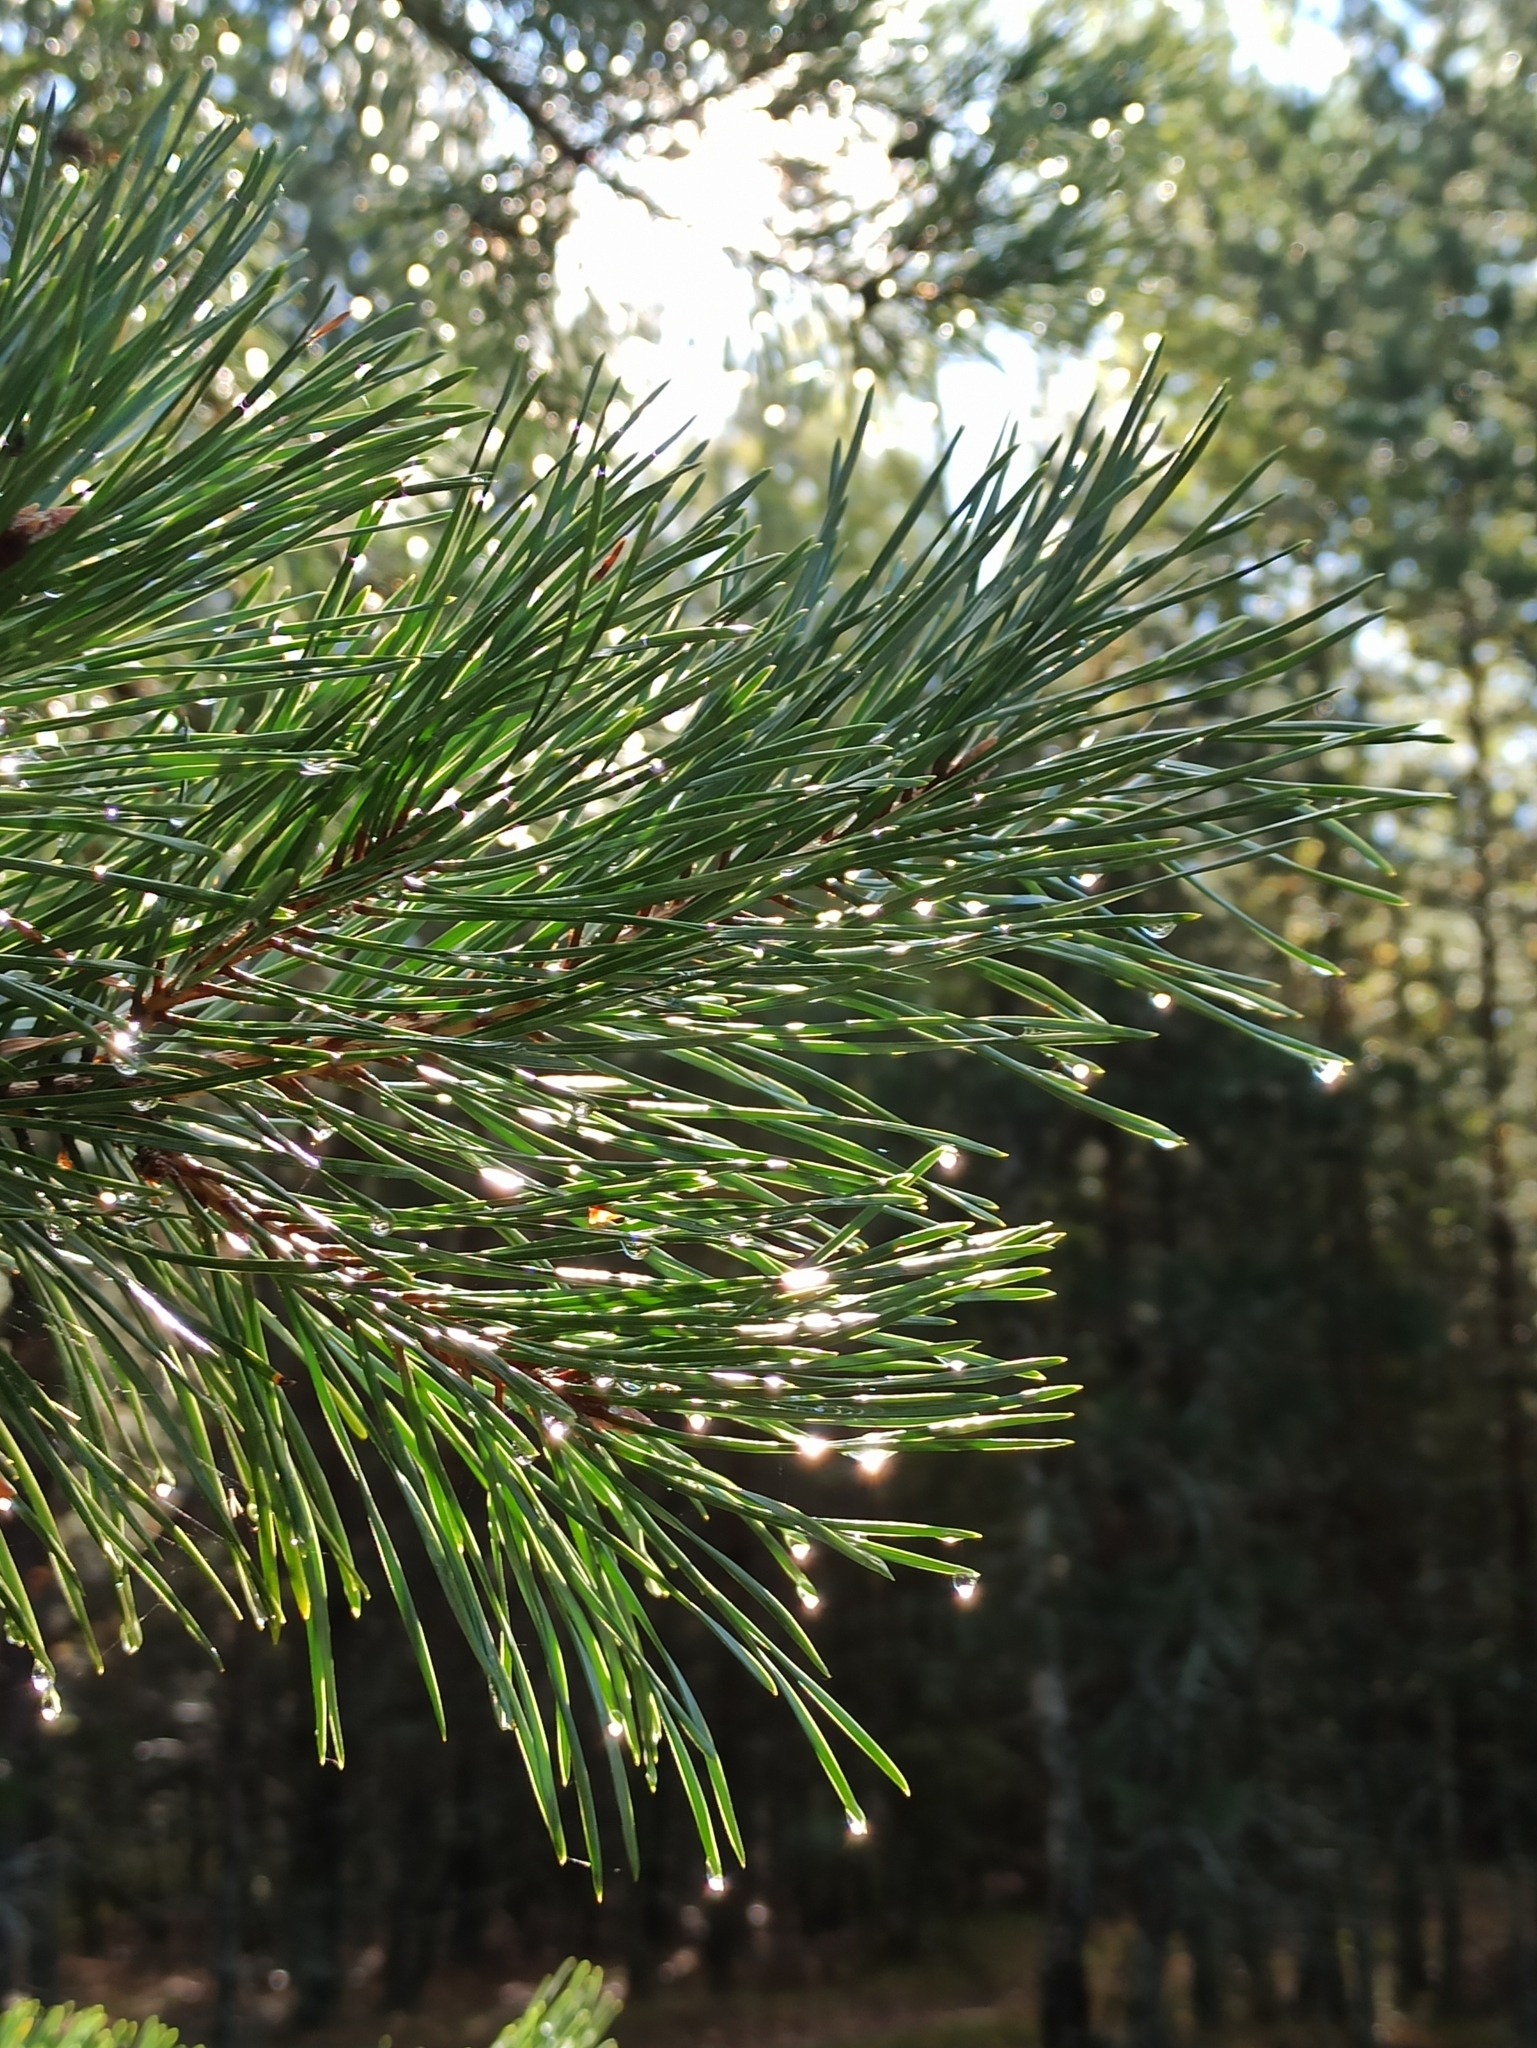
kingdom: Plantae
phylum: Tracheophyta
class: Pinopsida
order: Pinales
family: Pinaceae
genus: Pinus
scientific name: Pinus sylvestris
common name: Scots pine
